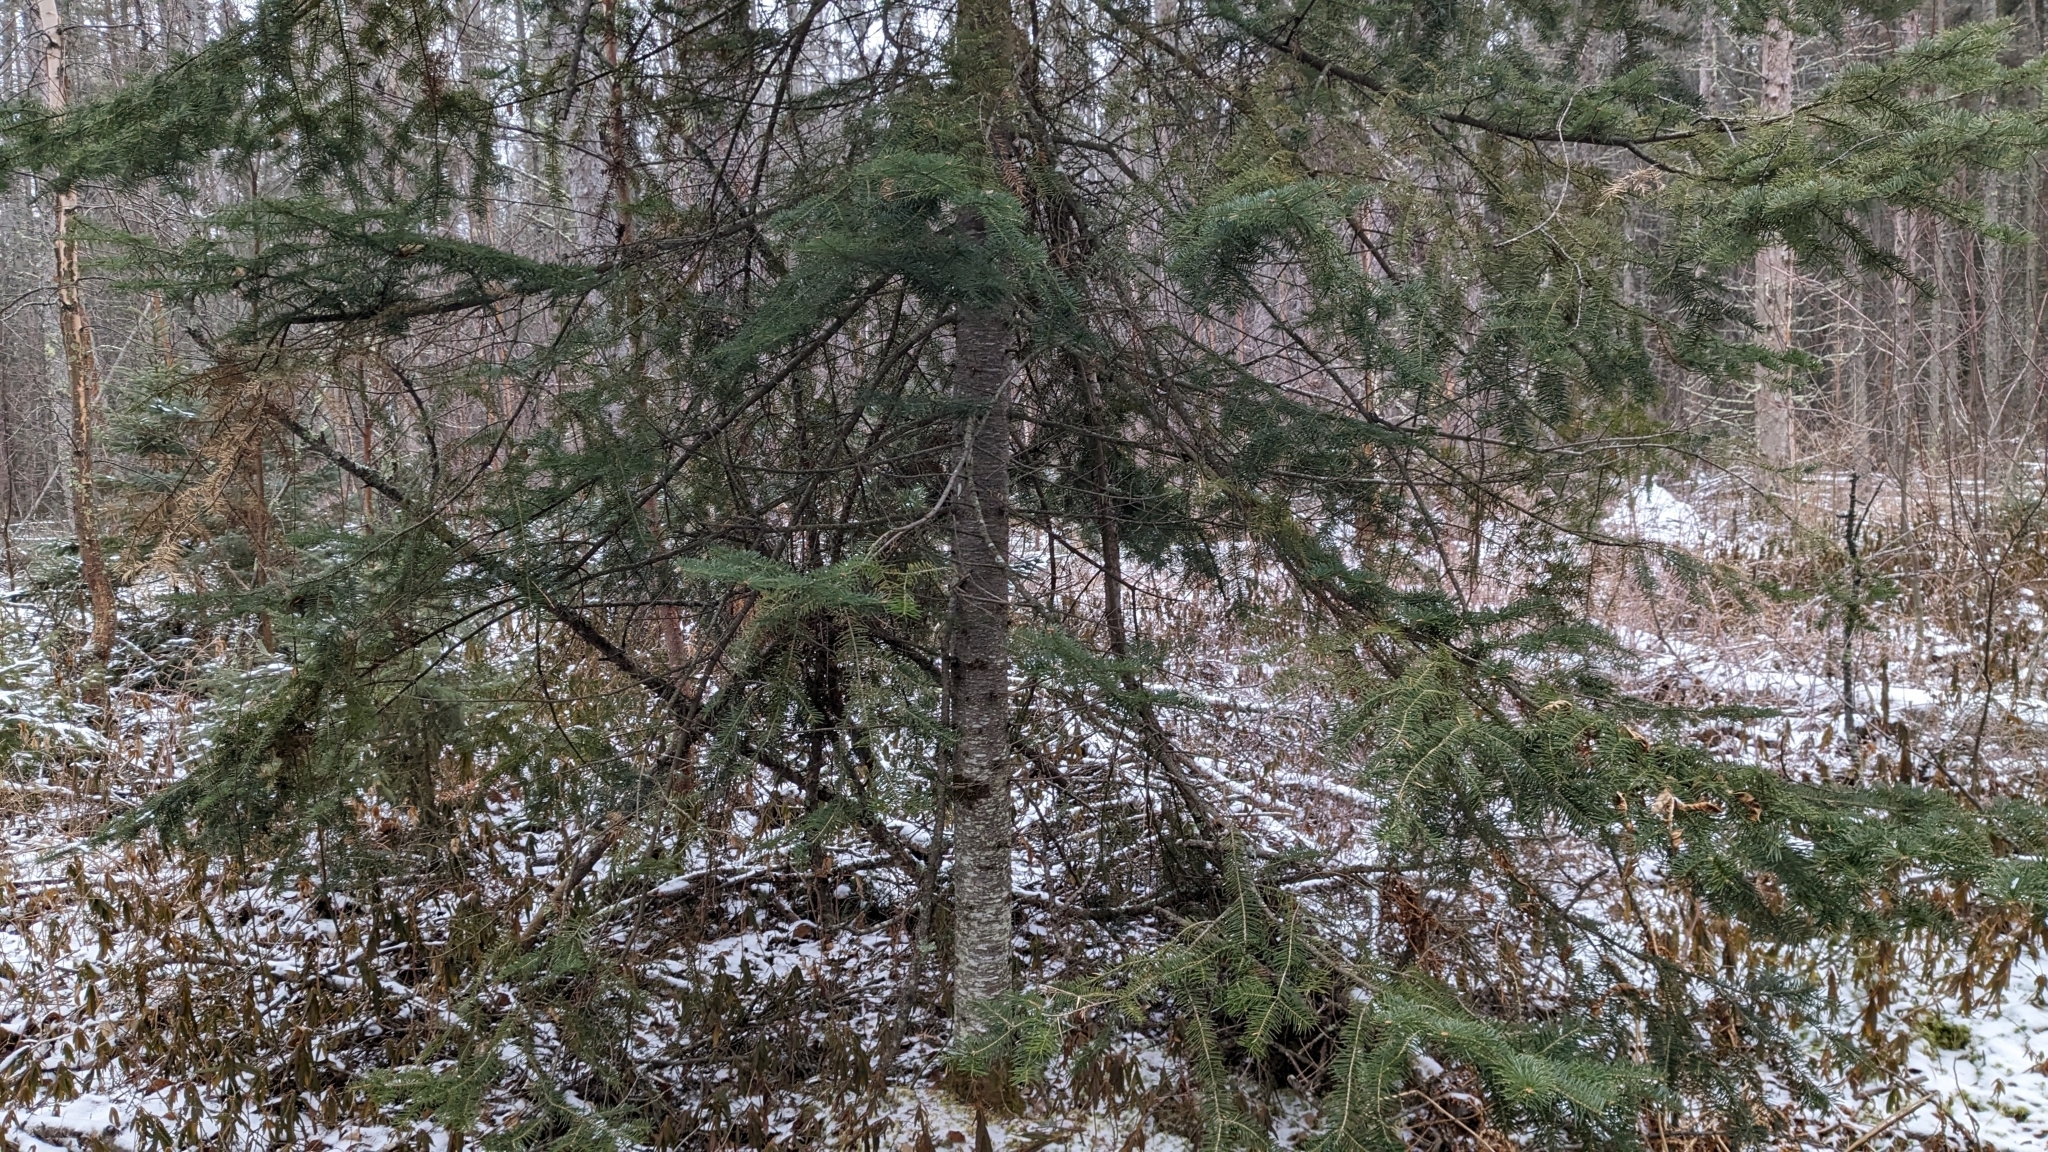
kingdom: Plantae
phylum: Tracheophyta
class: Pinopsida
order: Pinales
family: Pinaceae
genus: Abies
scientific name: Abies balsamea
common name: Balsam fir
